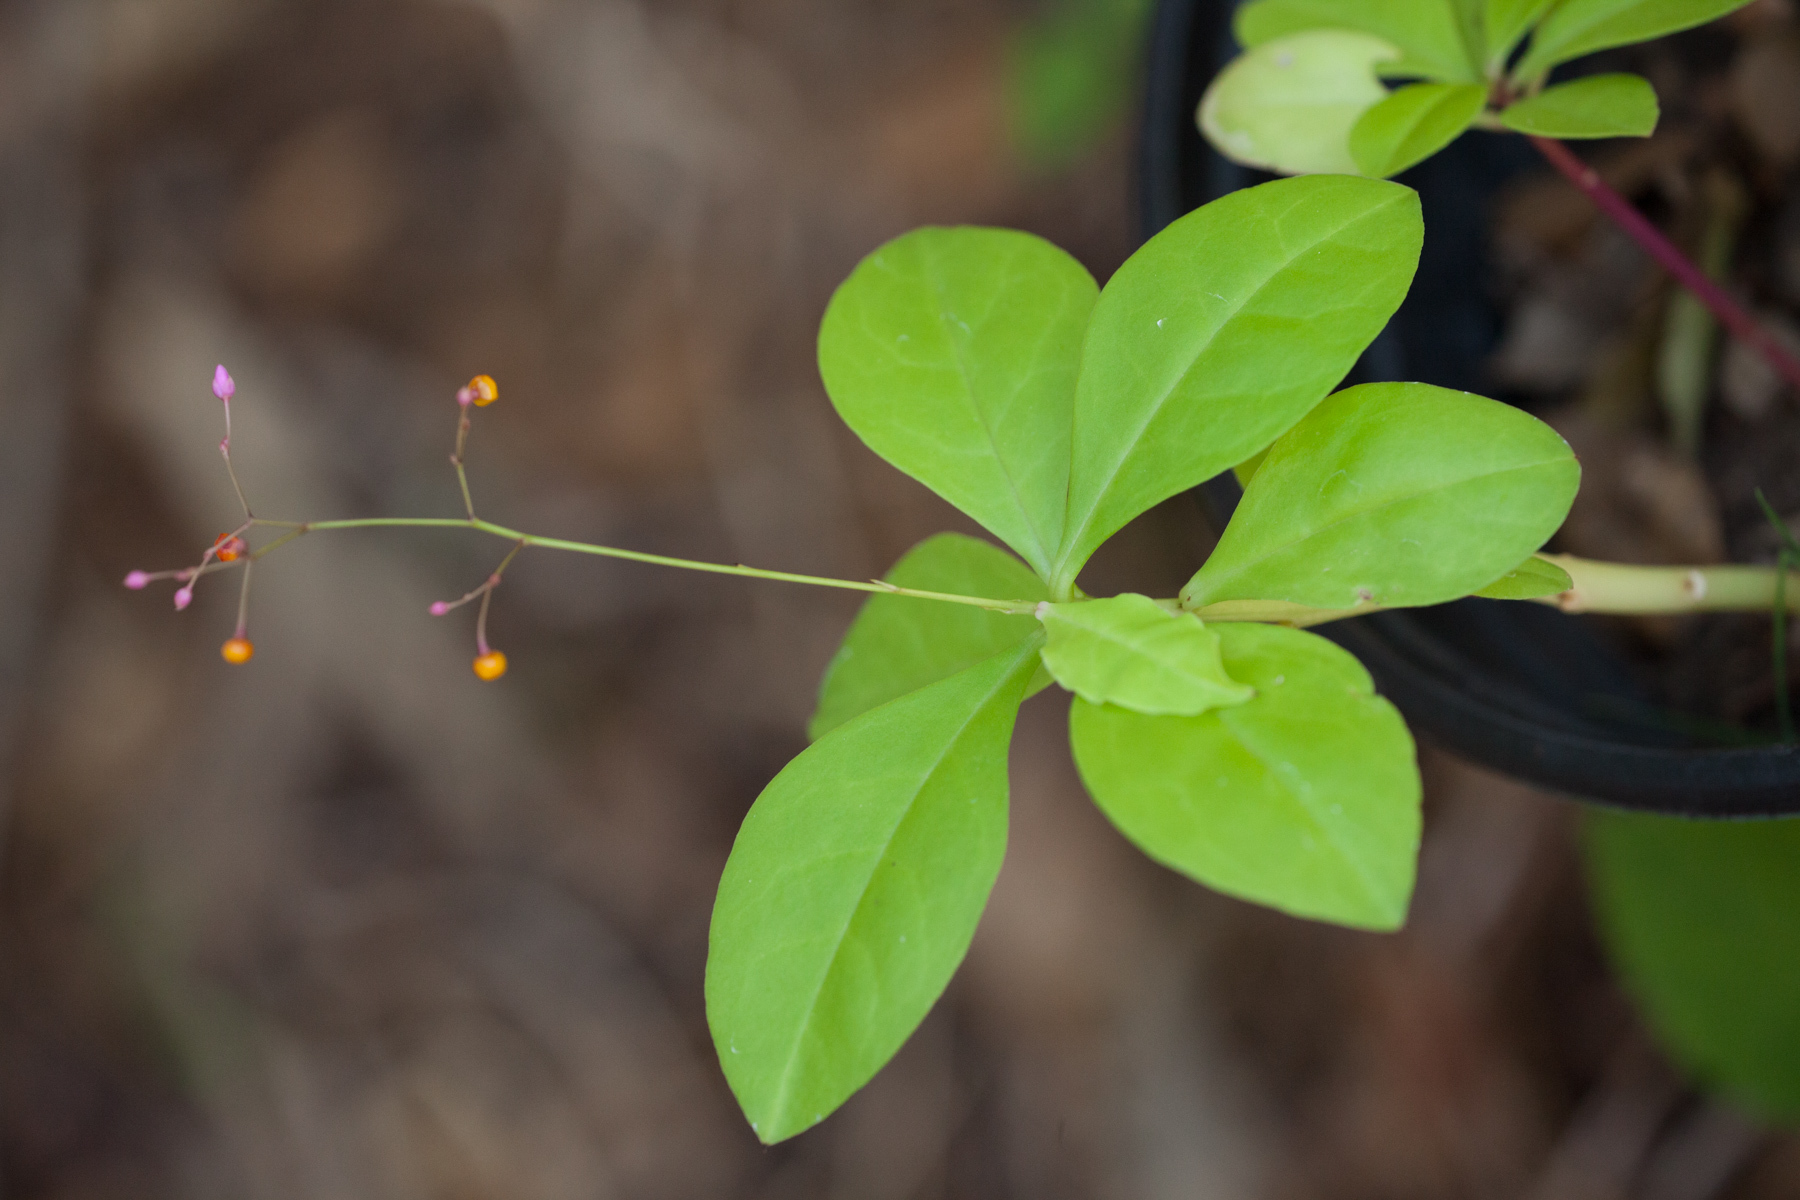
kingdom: Plantae
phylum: Tracheophyta
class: Magnoliopsida
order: Caryophyllales
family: Talinaceae
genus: Talinum
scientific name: Talinum paniculatum
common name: Jewels of opar
